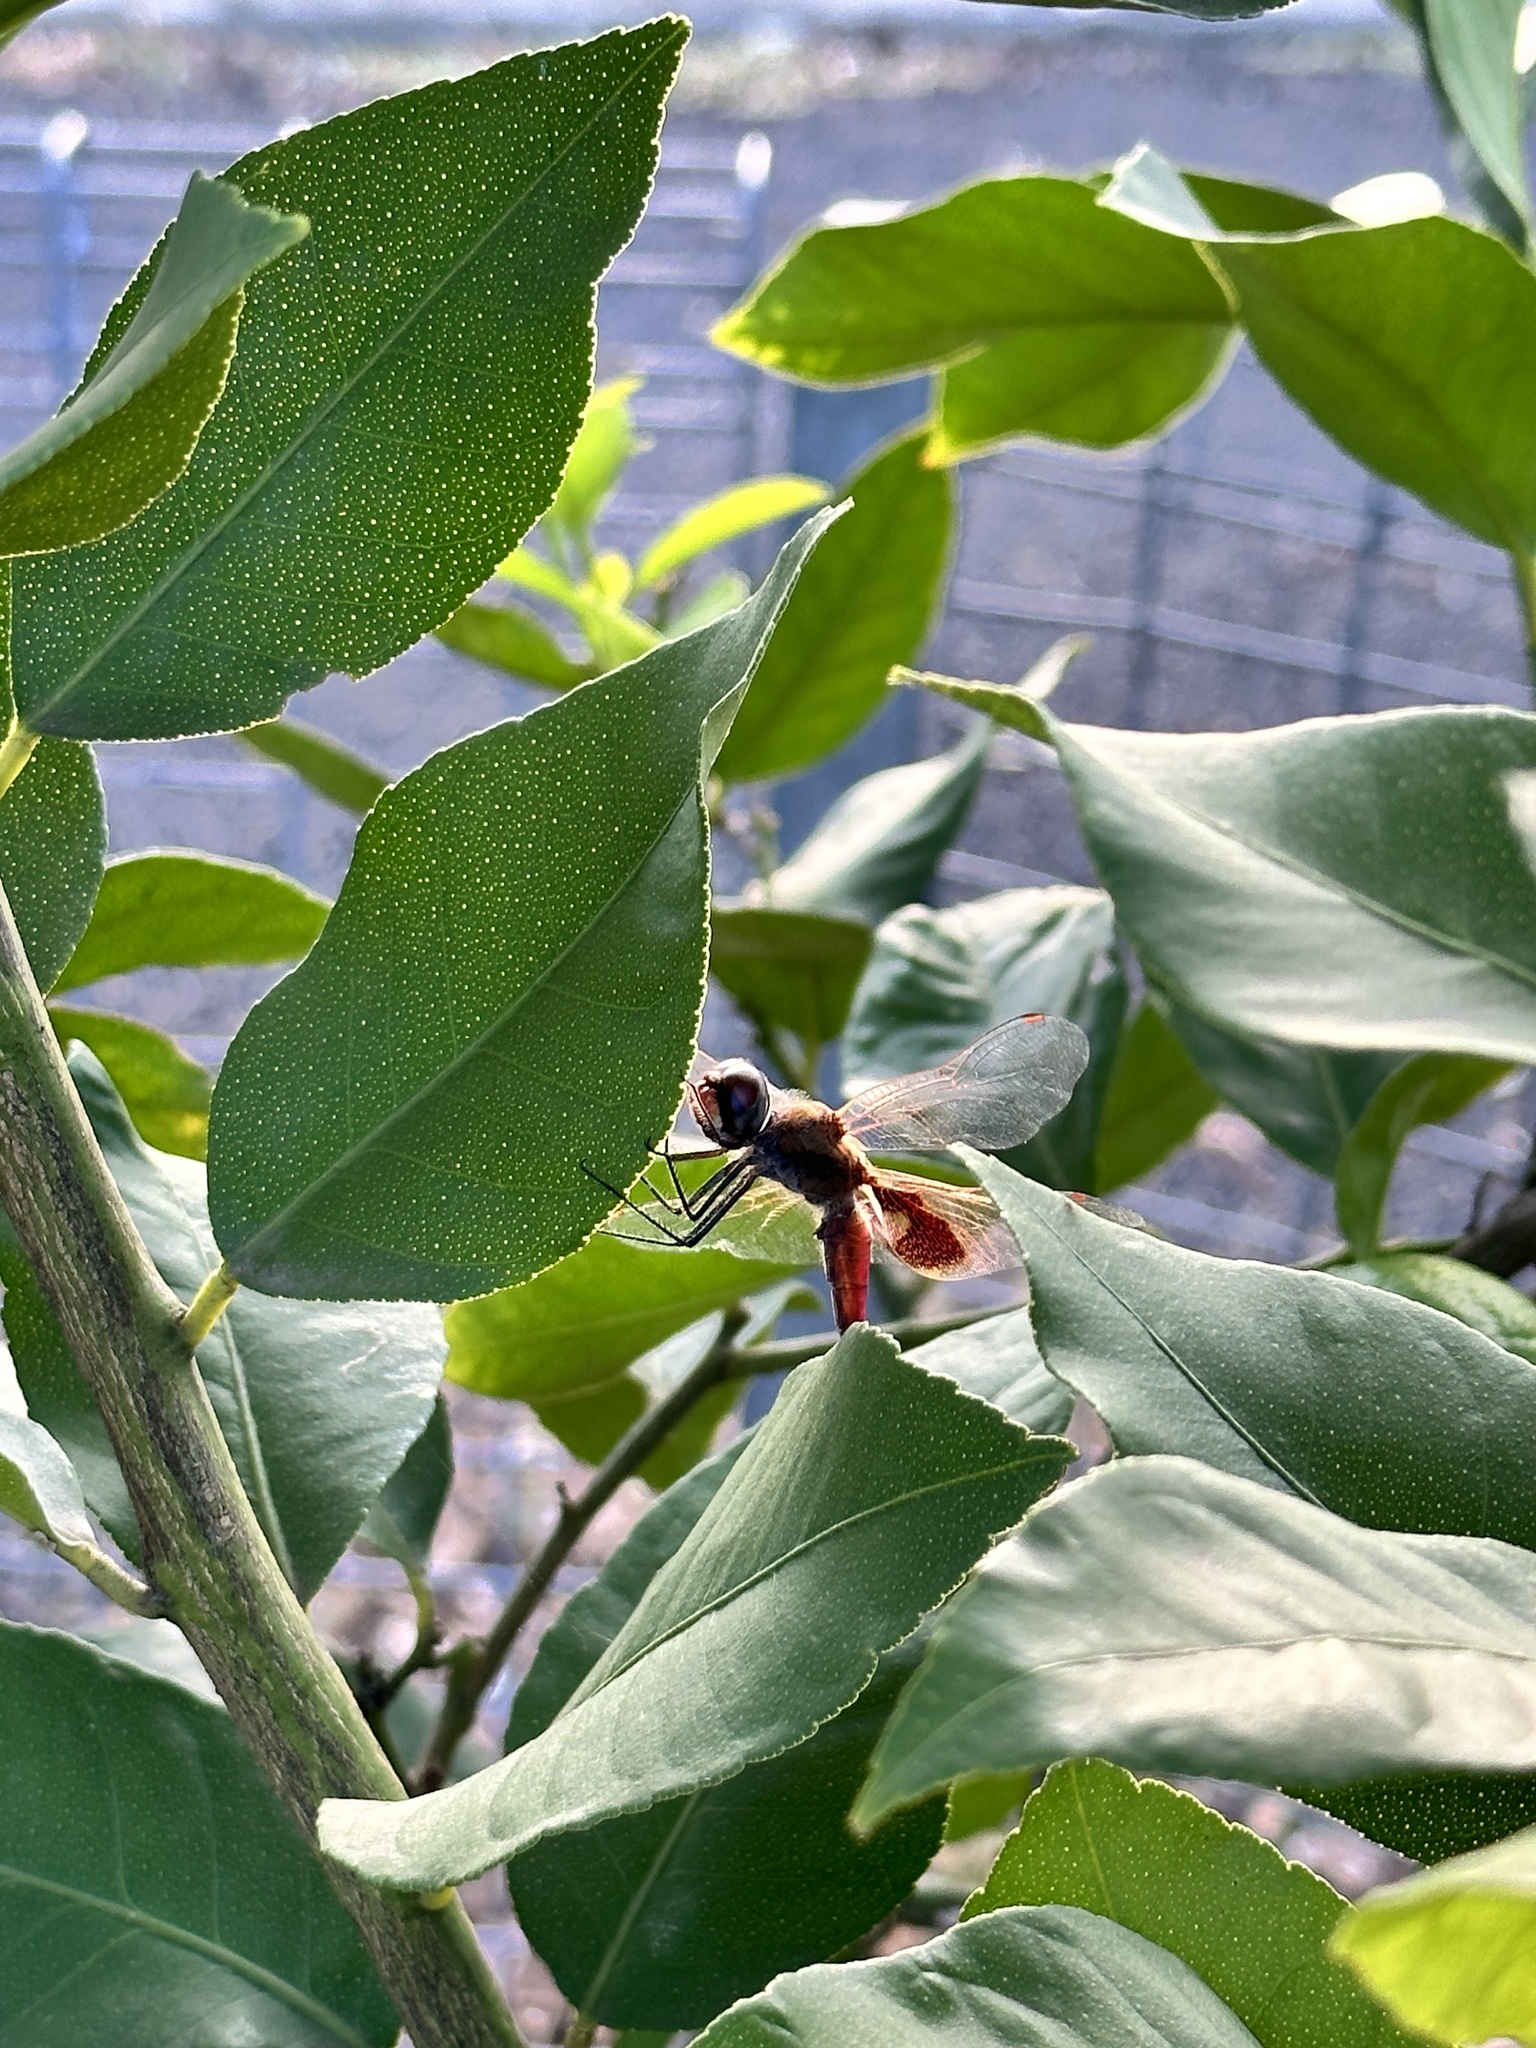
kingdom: Animalia
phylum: Arthropoda
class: Insecta
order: Odonata
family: Libellulidae
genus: Tramea
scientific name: Tramea loewii
